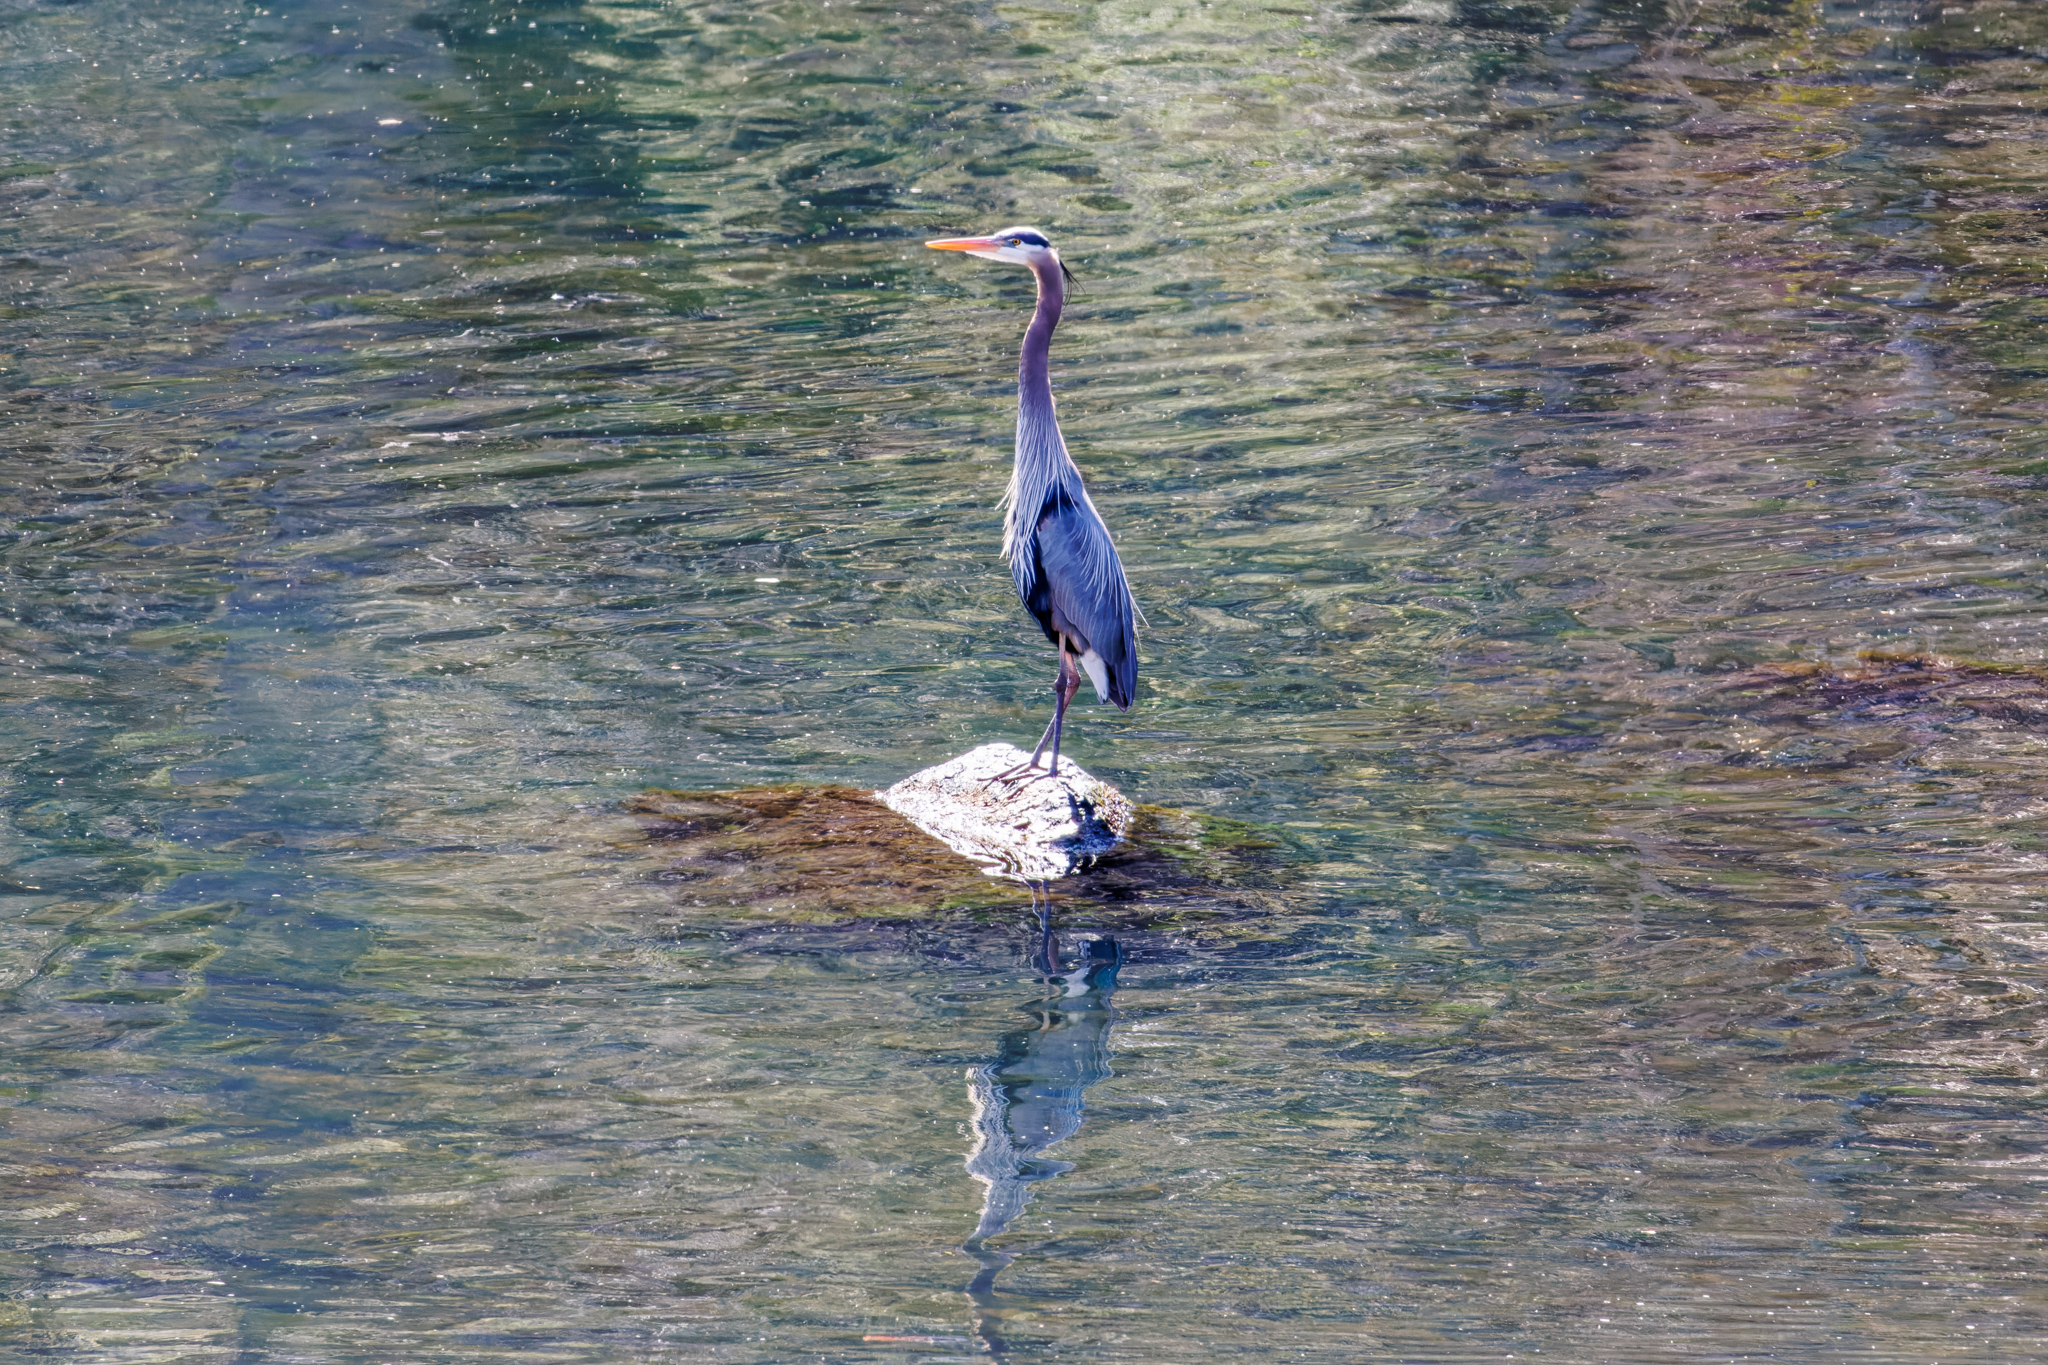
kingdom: Animalia
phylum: Chordata
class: Aves
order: Pelecaniformes
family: Ardeidae
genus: Ardea
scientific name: Ardea herodias
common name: Great blue heron
